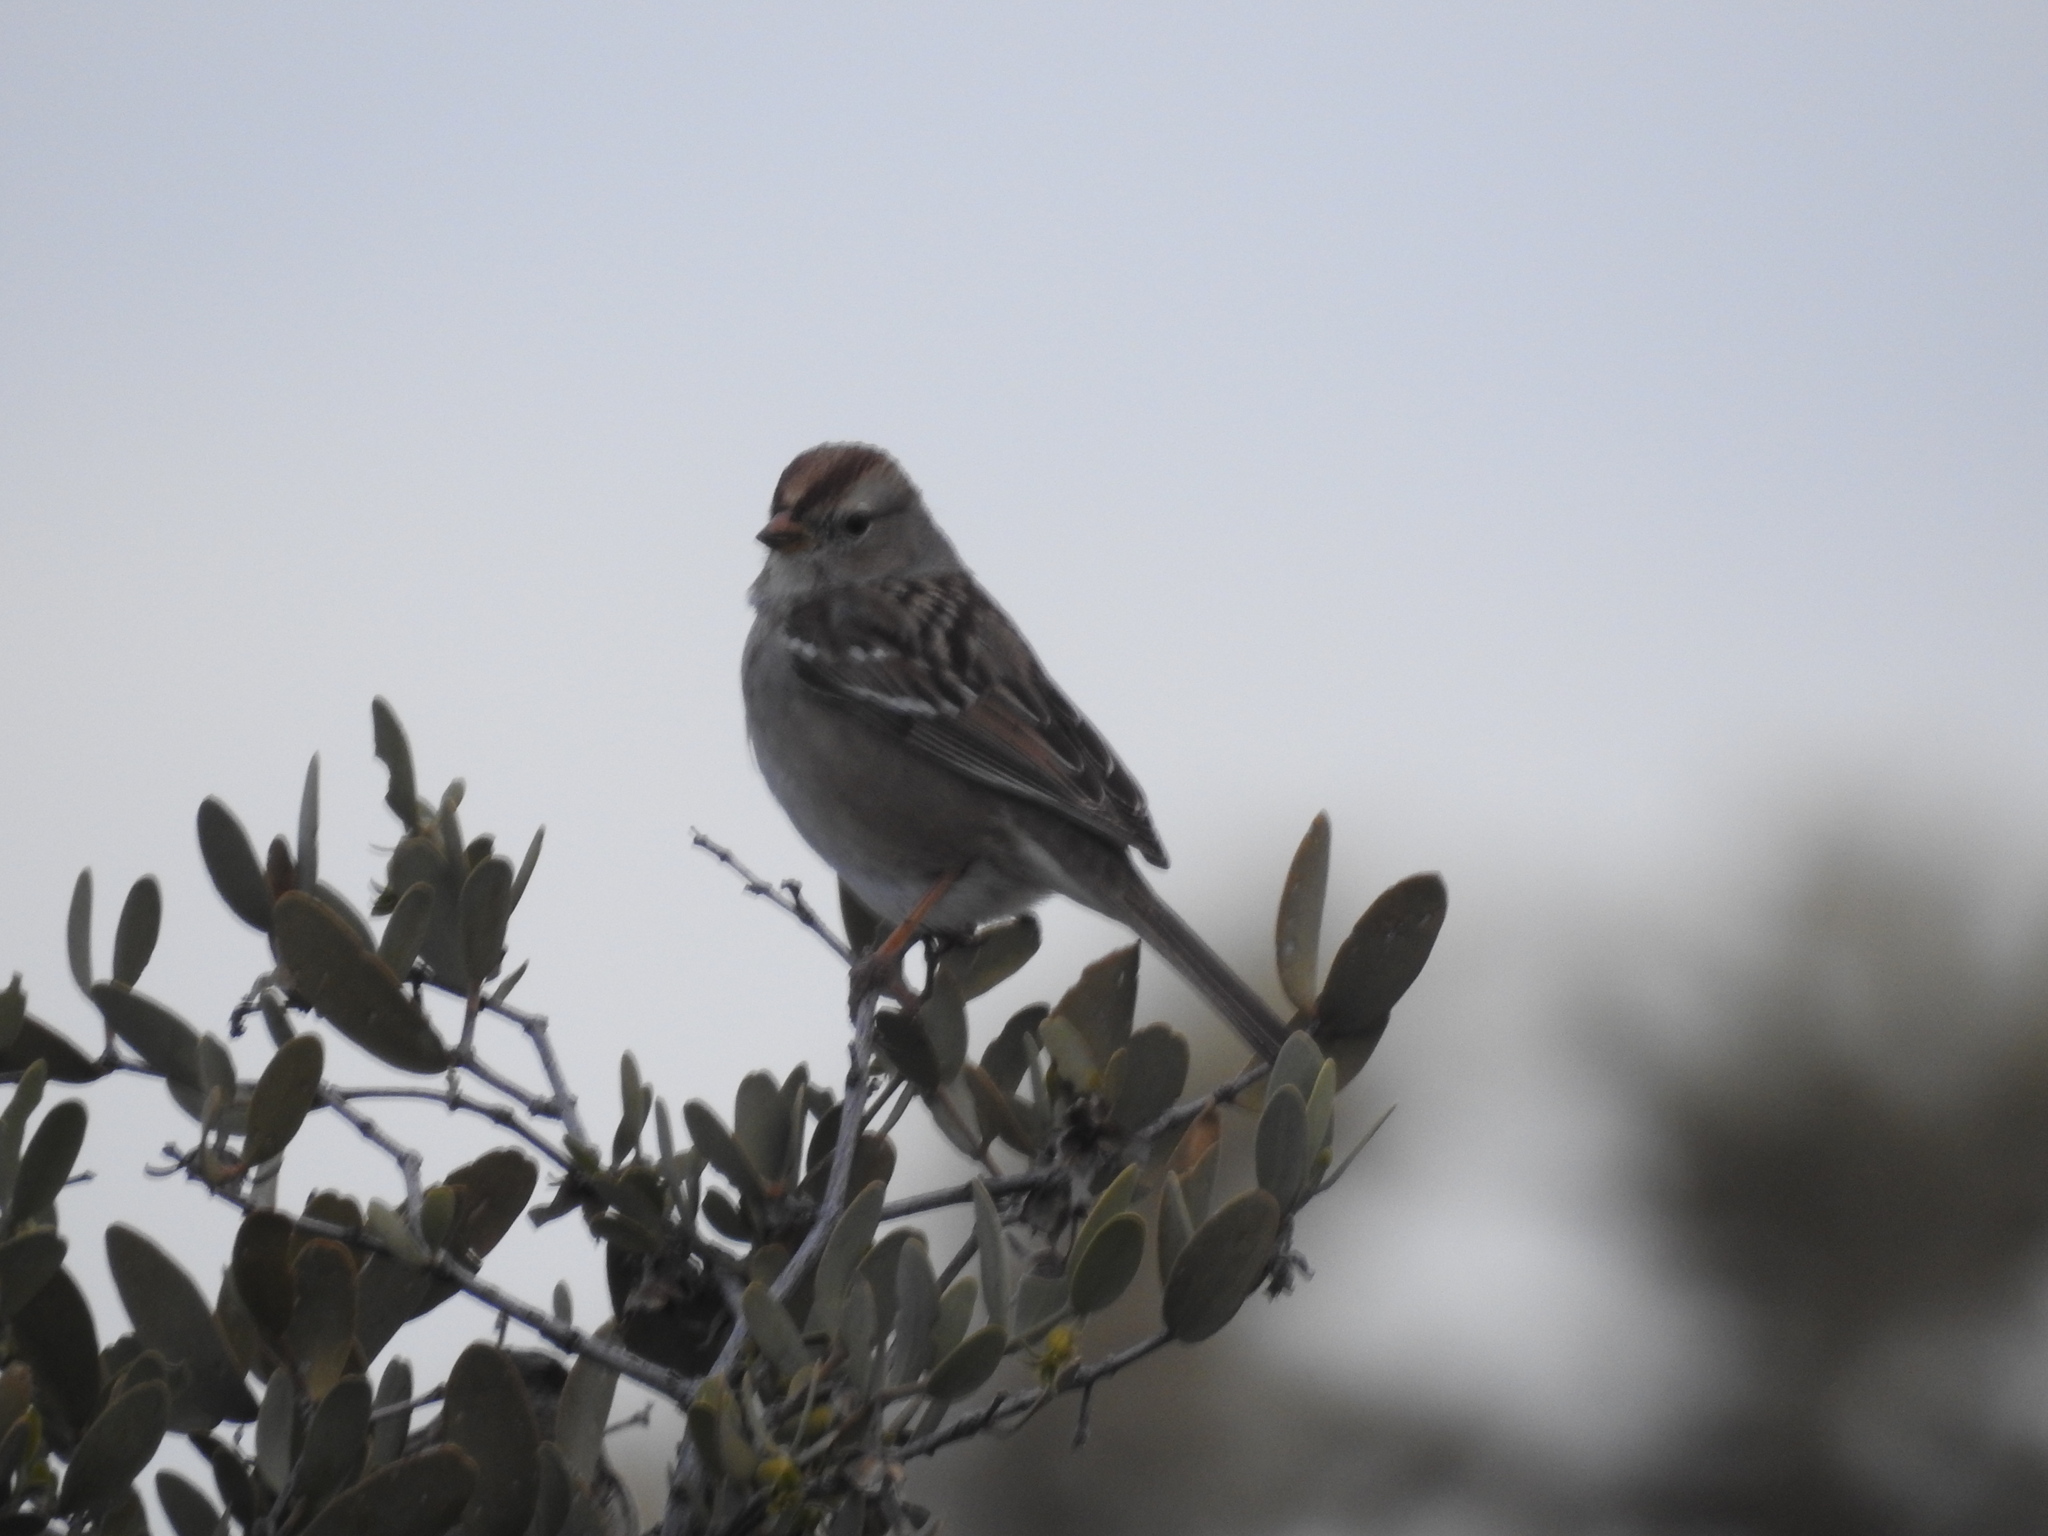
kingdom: Animalia
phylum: Chordata
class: Aves
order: Passeriformes
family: Passerellidae
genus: Zonotrichia
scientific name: Zonotrichia leucophrys
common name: White-crowned sparrow
